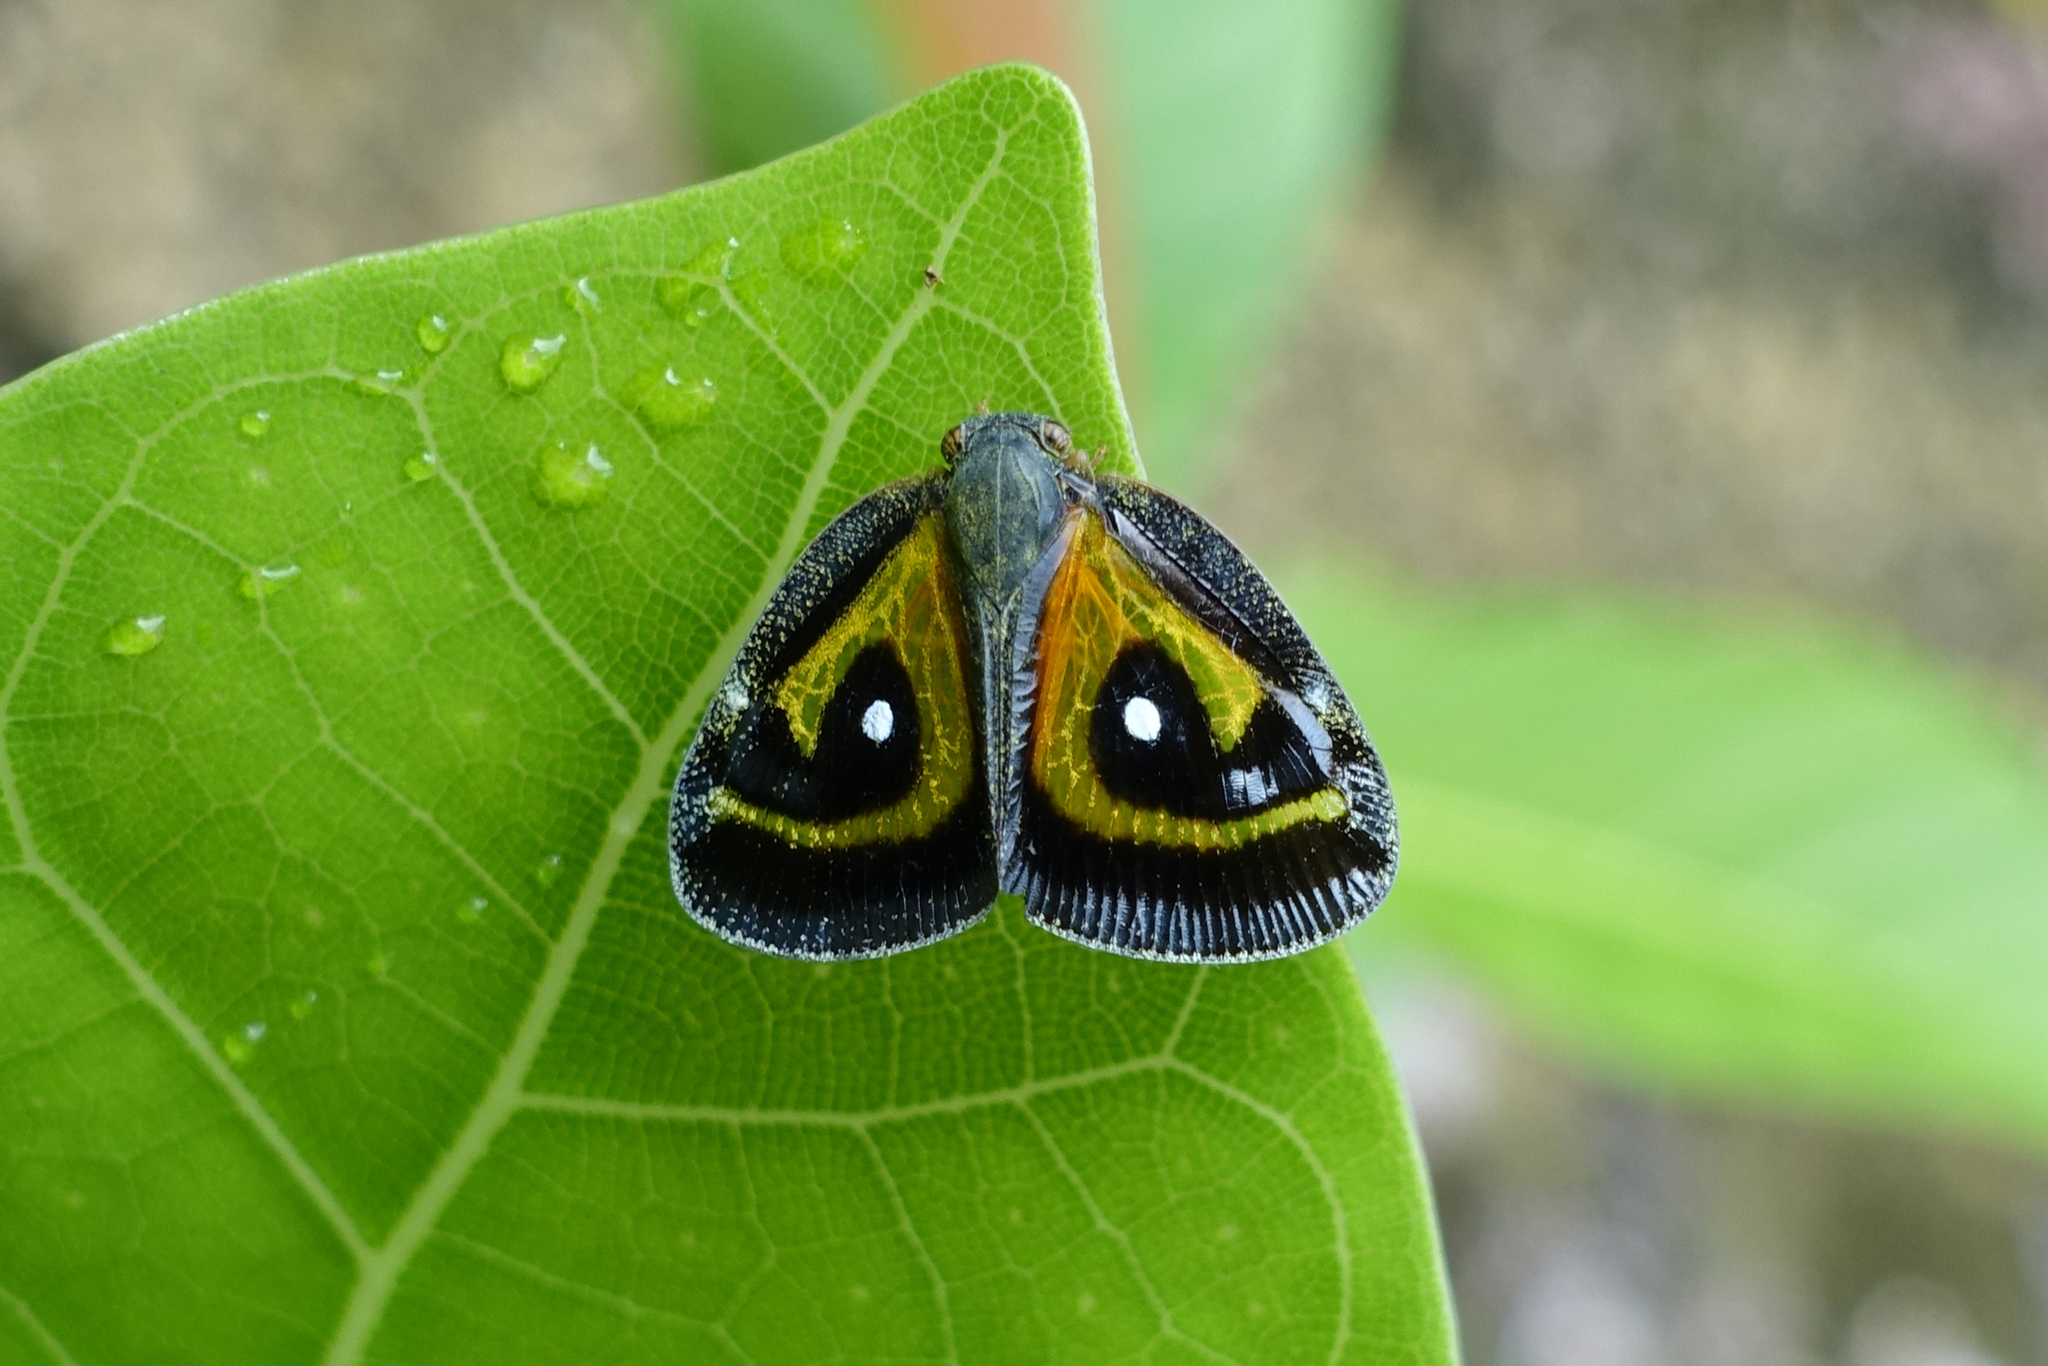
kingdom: Animalia
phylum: Arthropoda
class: Insecta
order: Hemiptera
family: Ricaniidae
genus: Euricania
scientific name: Euricania splendida
